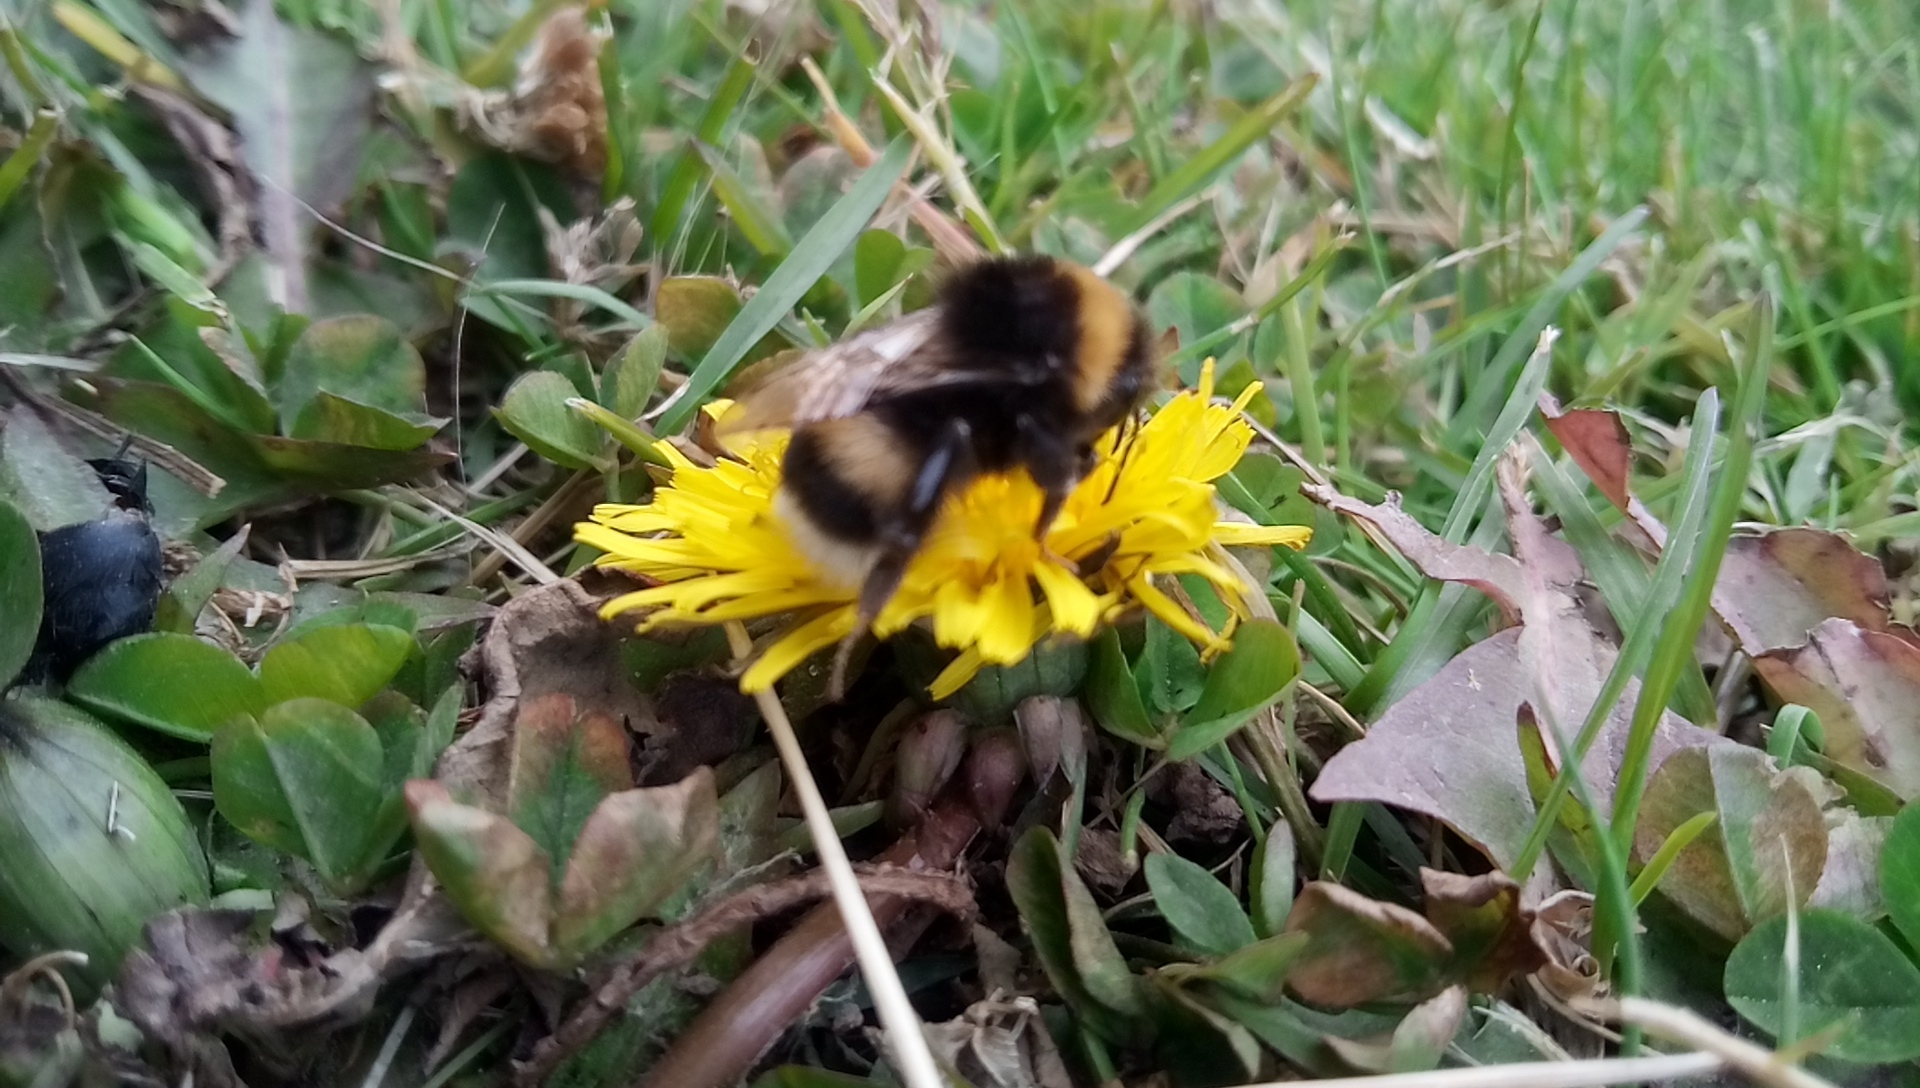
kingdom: Animalia
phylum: Arthropoda
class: Insecta
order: Hymenoptera
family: Apidae
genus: Bombus
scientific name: Bombus terrestris
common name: Buff-tailed bumblebee
